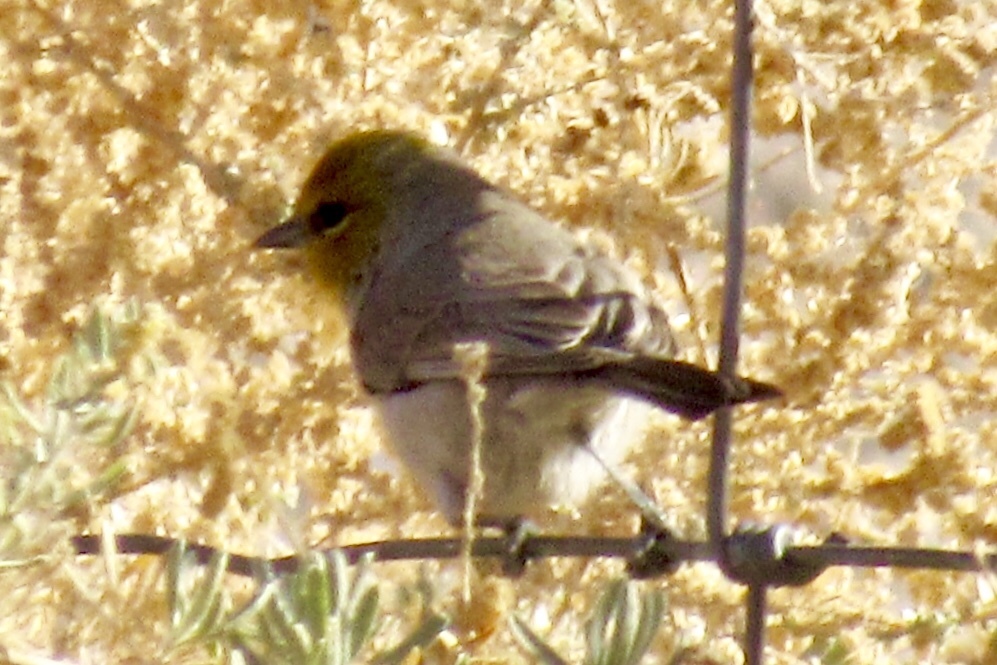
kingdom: Animalia
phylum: Chordata
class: Aves
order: Passeriformes
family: Remizidae
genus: Auriparus
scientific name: Auriparus flaviceps
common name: Verdin
